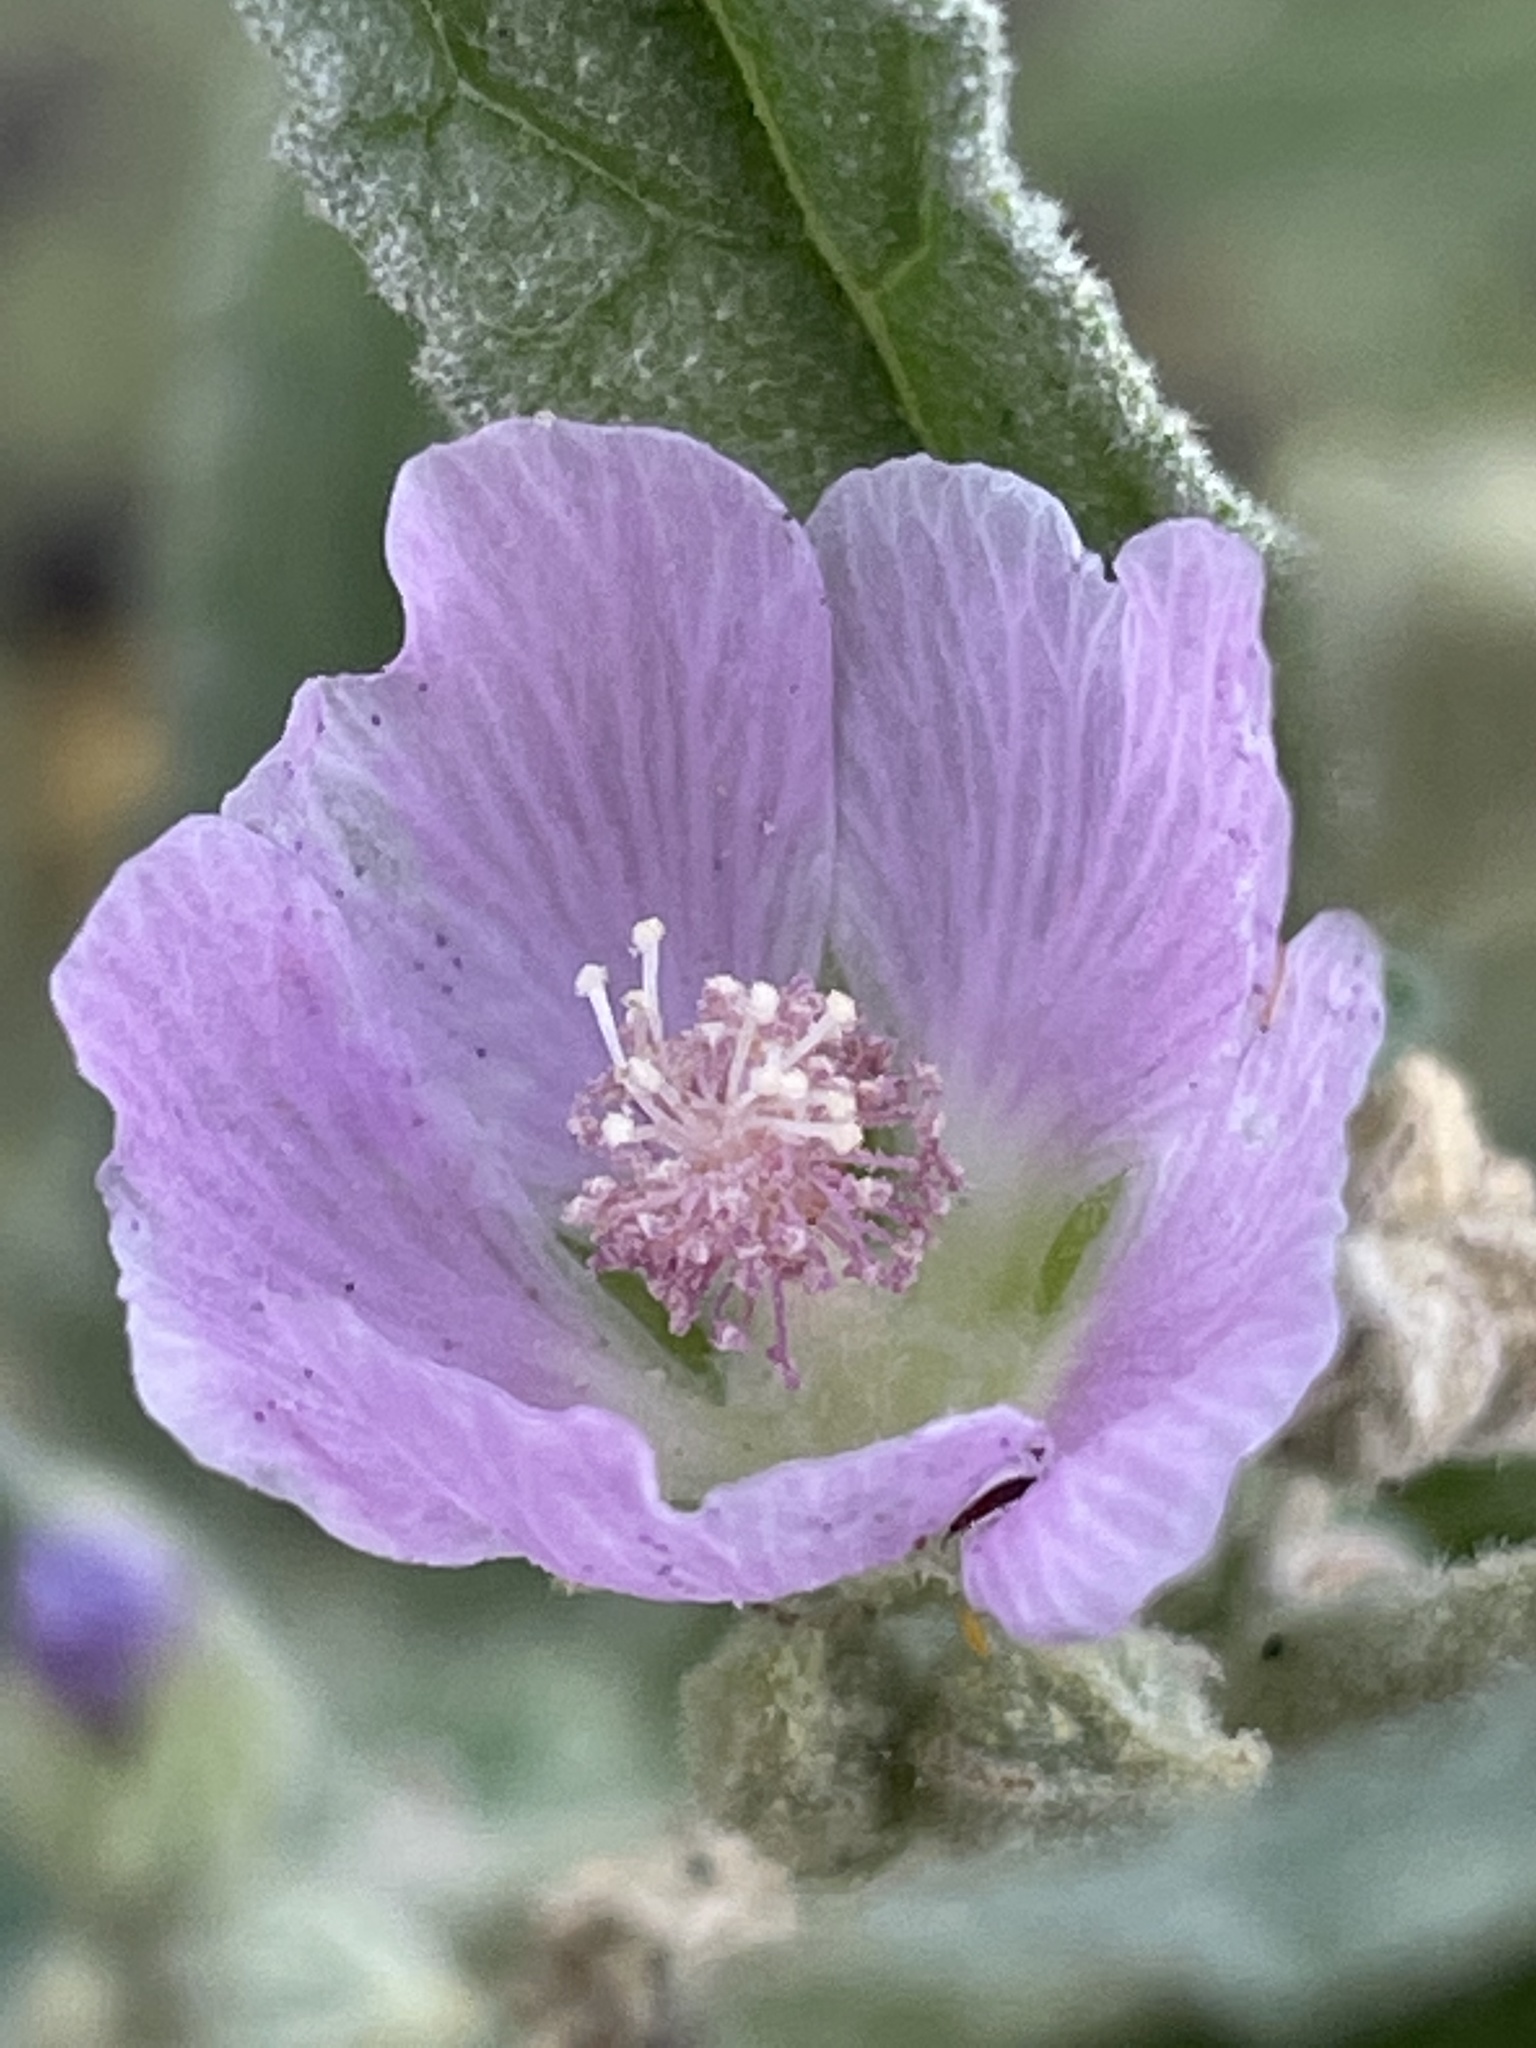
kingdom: Plantae
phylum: Tracheophyta
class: Magnoliopsida
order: Malvales
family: Malvaceae
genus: Sphaeralcea
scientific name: Sphaeralcea angustifolia
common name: Copper globe-mallow
